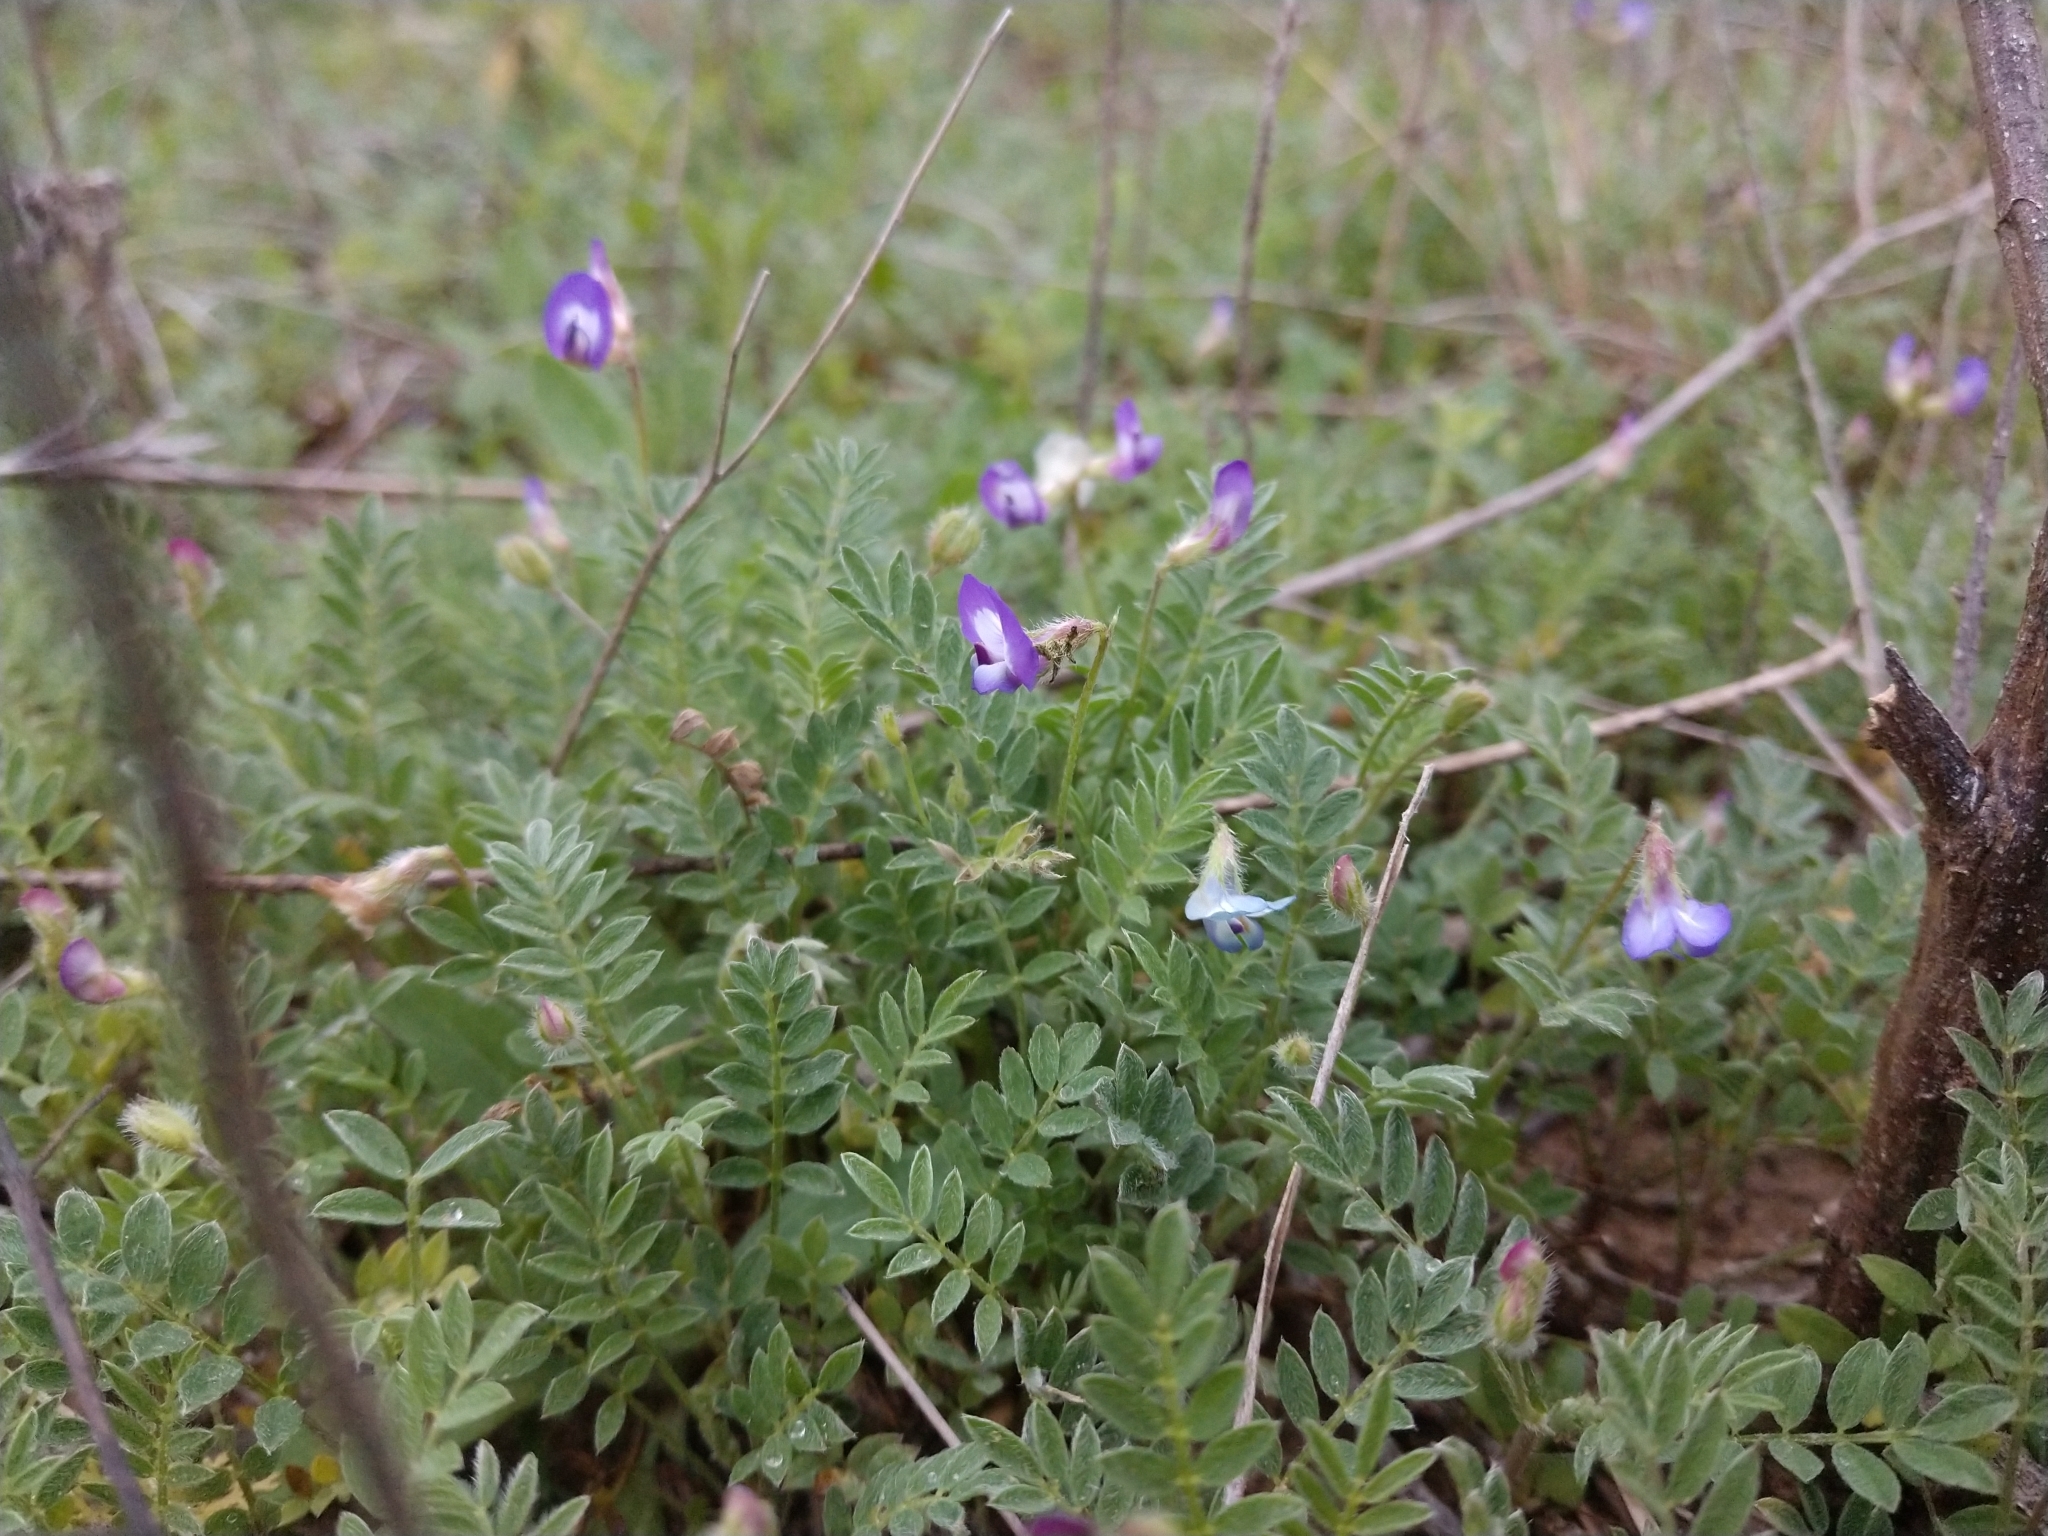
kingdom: Plantae
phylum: Tracheophyta
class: Magnoliopsida
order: Fabales
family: Fabaceae
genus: Astragalus
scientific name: Astragalus nuttallianus
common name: Smallflowered milkvetch
